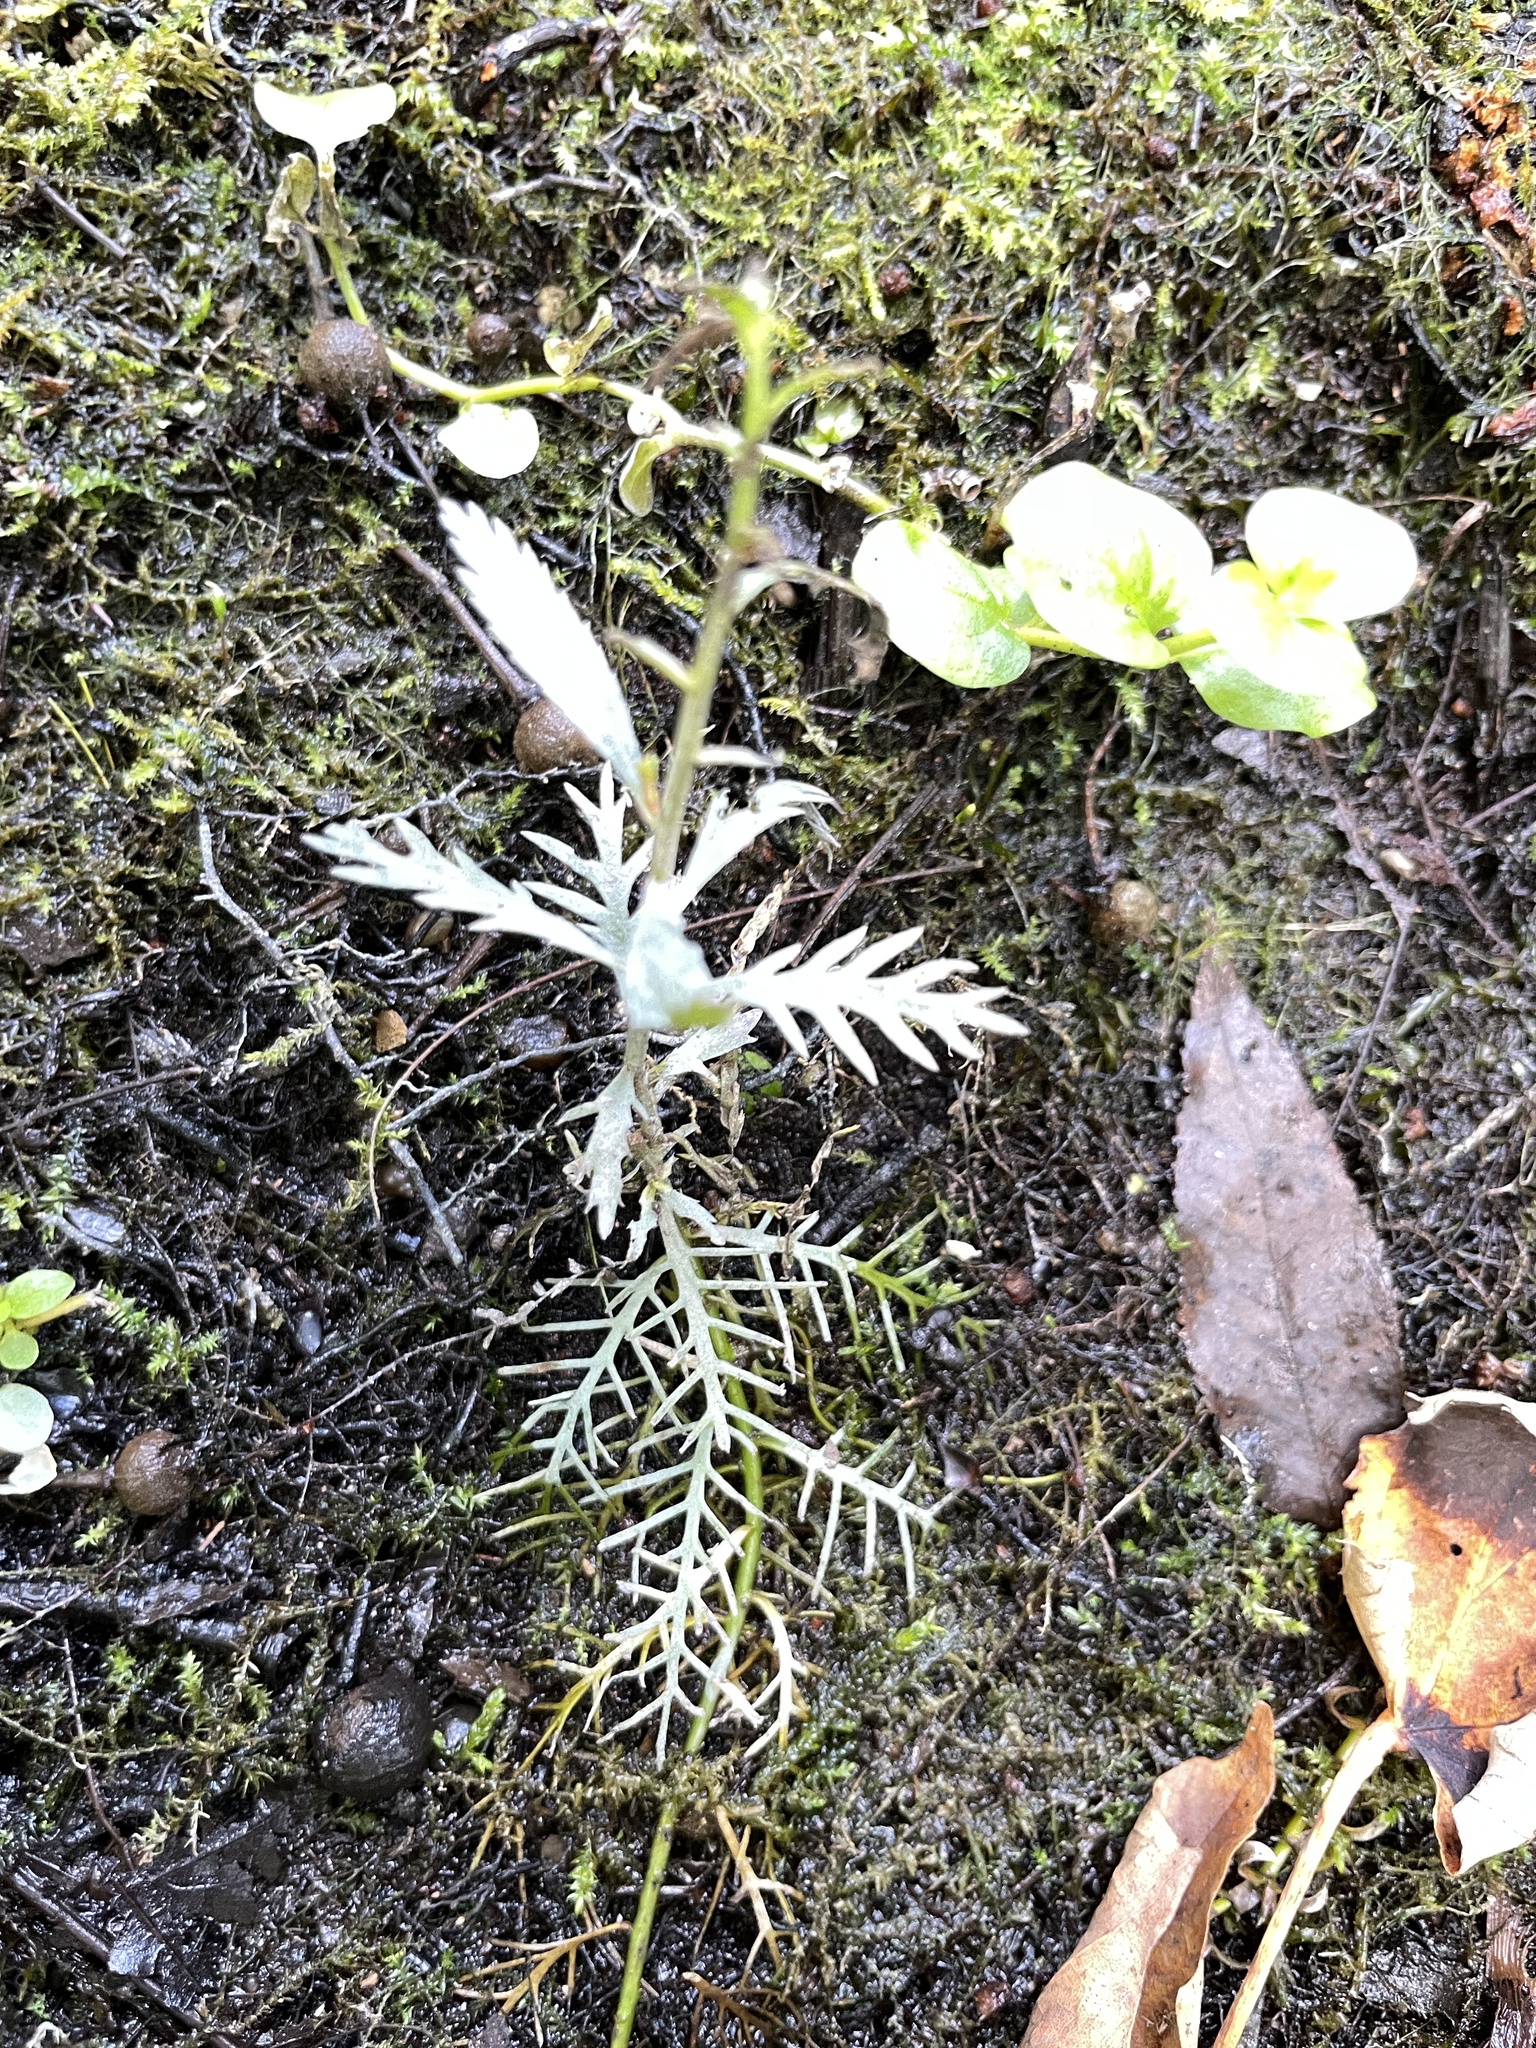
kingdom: Plantae
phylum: Tracheophyta
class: Magnoliopsida
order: Saxifragales
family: Haloragaceae
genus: Proserpinaca
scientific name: Proserpinaca palustris
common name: Marsh mermaidweed
